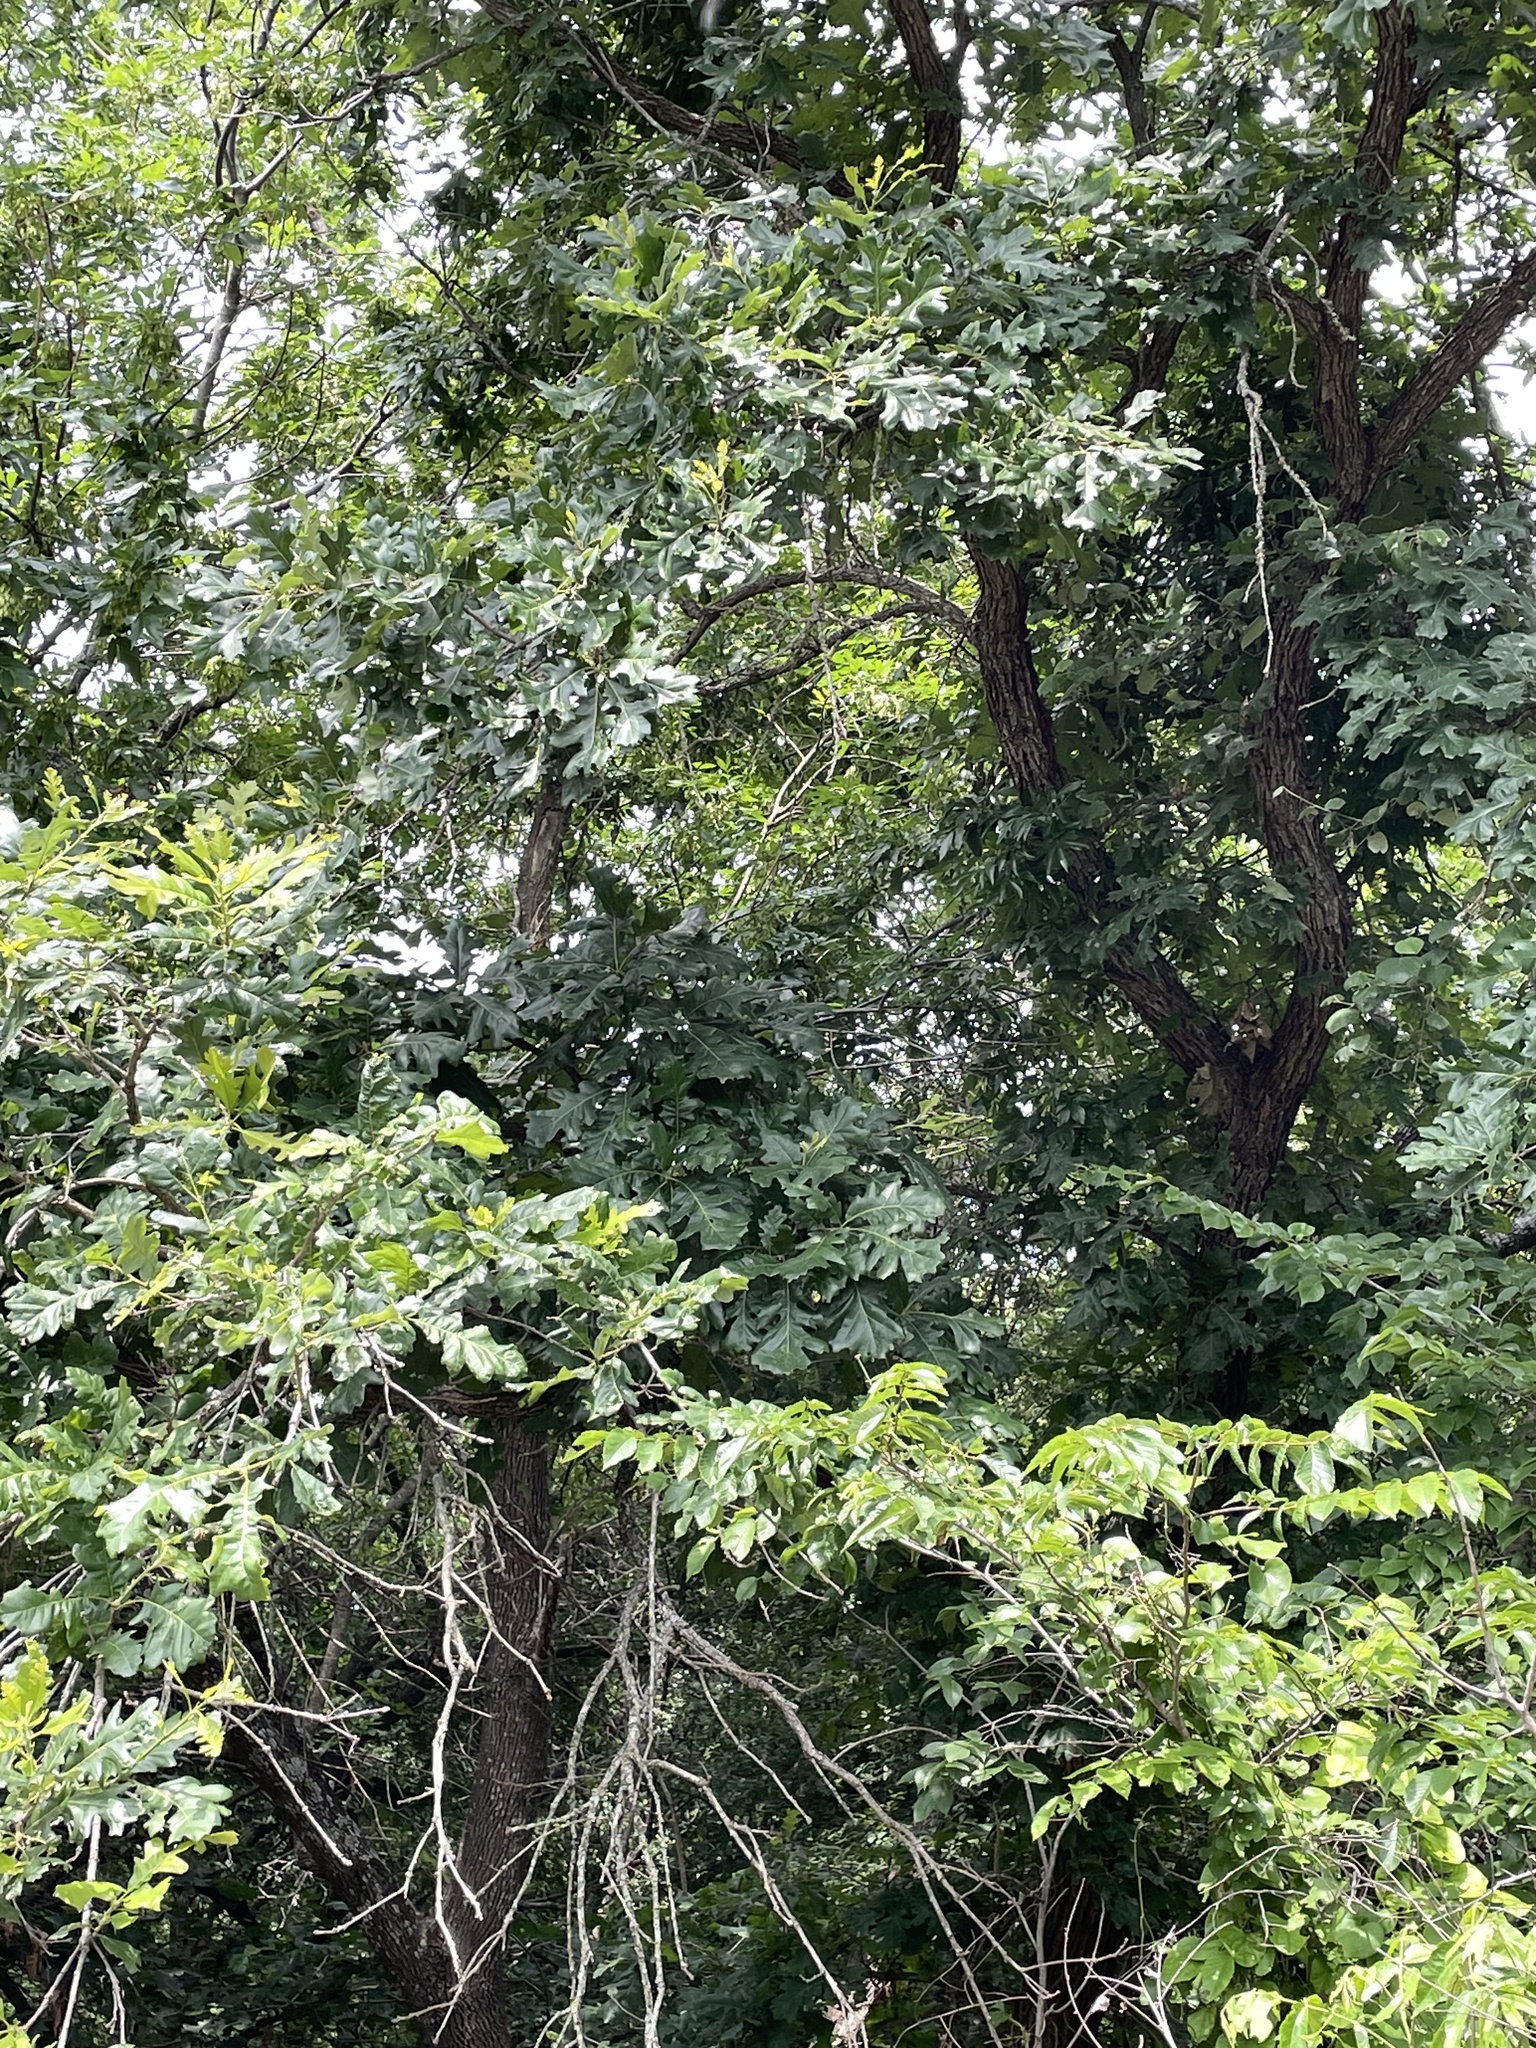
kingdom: Plantae
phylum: Tracheophyta
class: Magnoliopsida
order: Fagales
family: Fagaceae
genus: Quercus
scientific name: Quercus macrocarpa
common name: Bur oak
